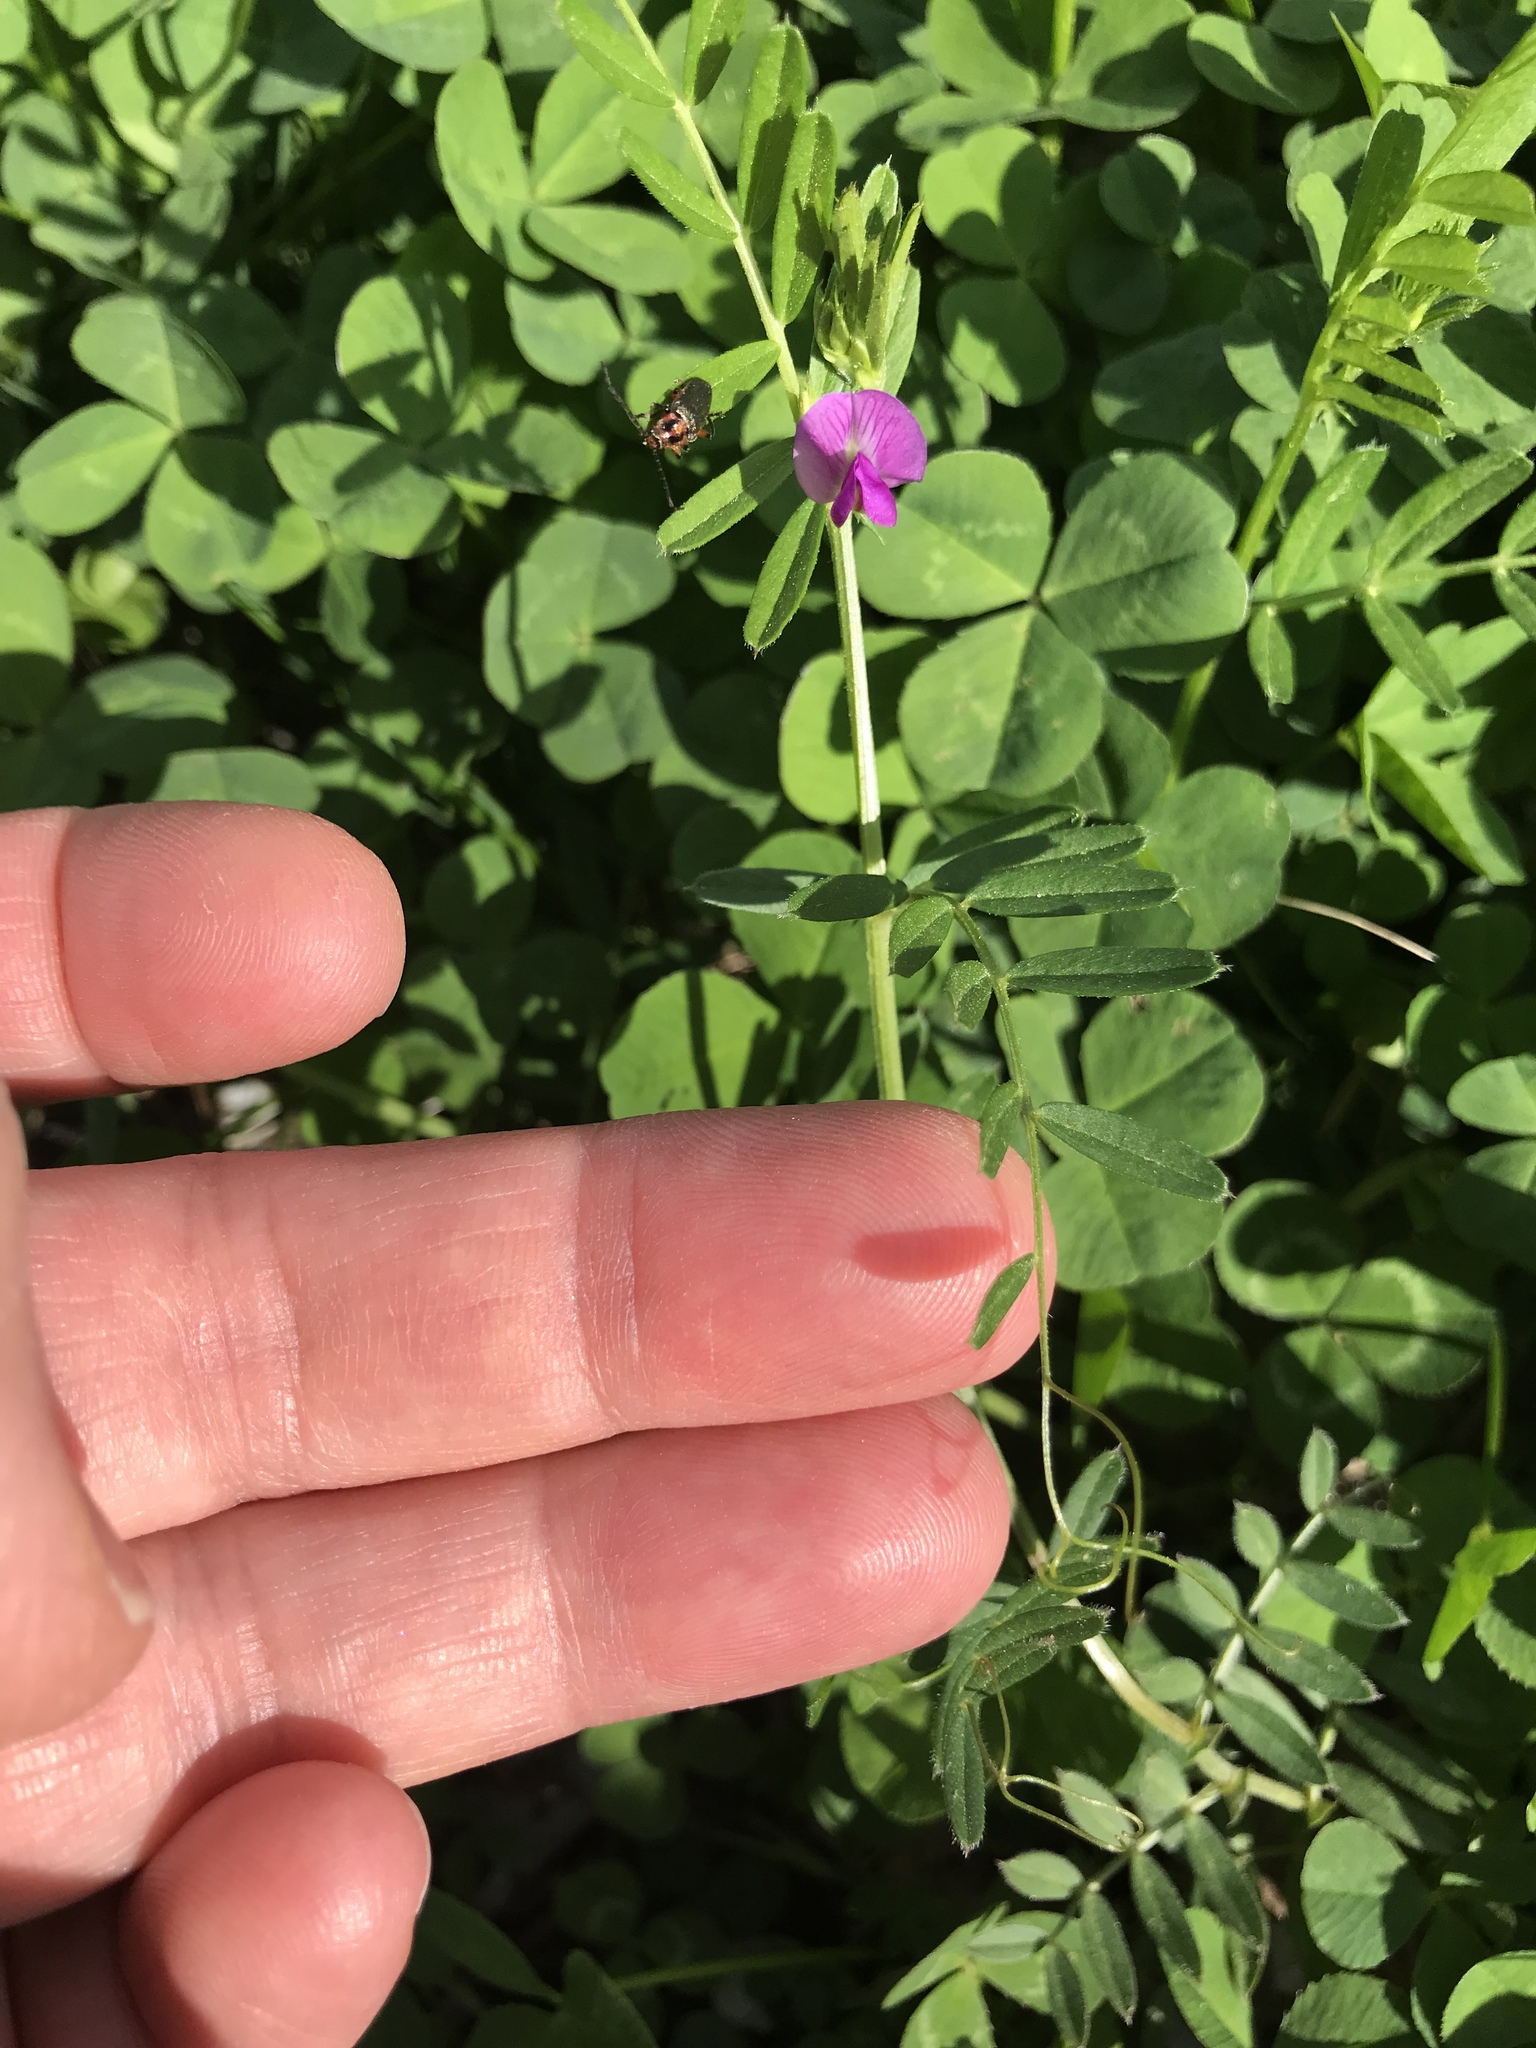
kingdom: Plantae
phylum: Tracheophyta
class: Magnoliopsida
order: Fabales
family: Fabaceae
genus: Vicia
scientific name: Vicia sativa
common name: Garden vetch
